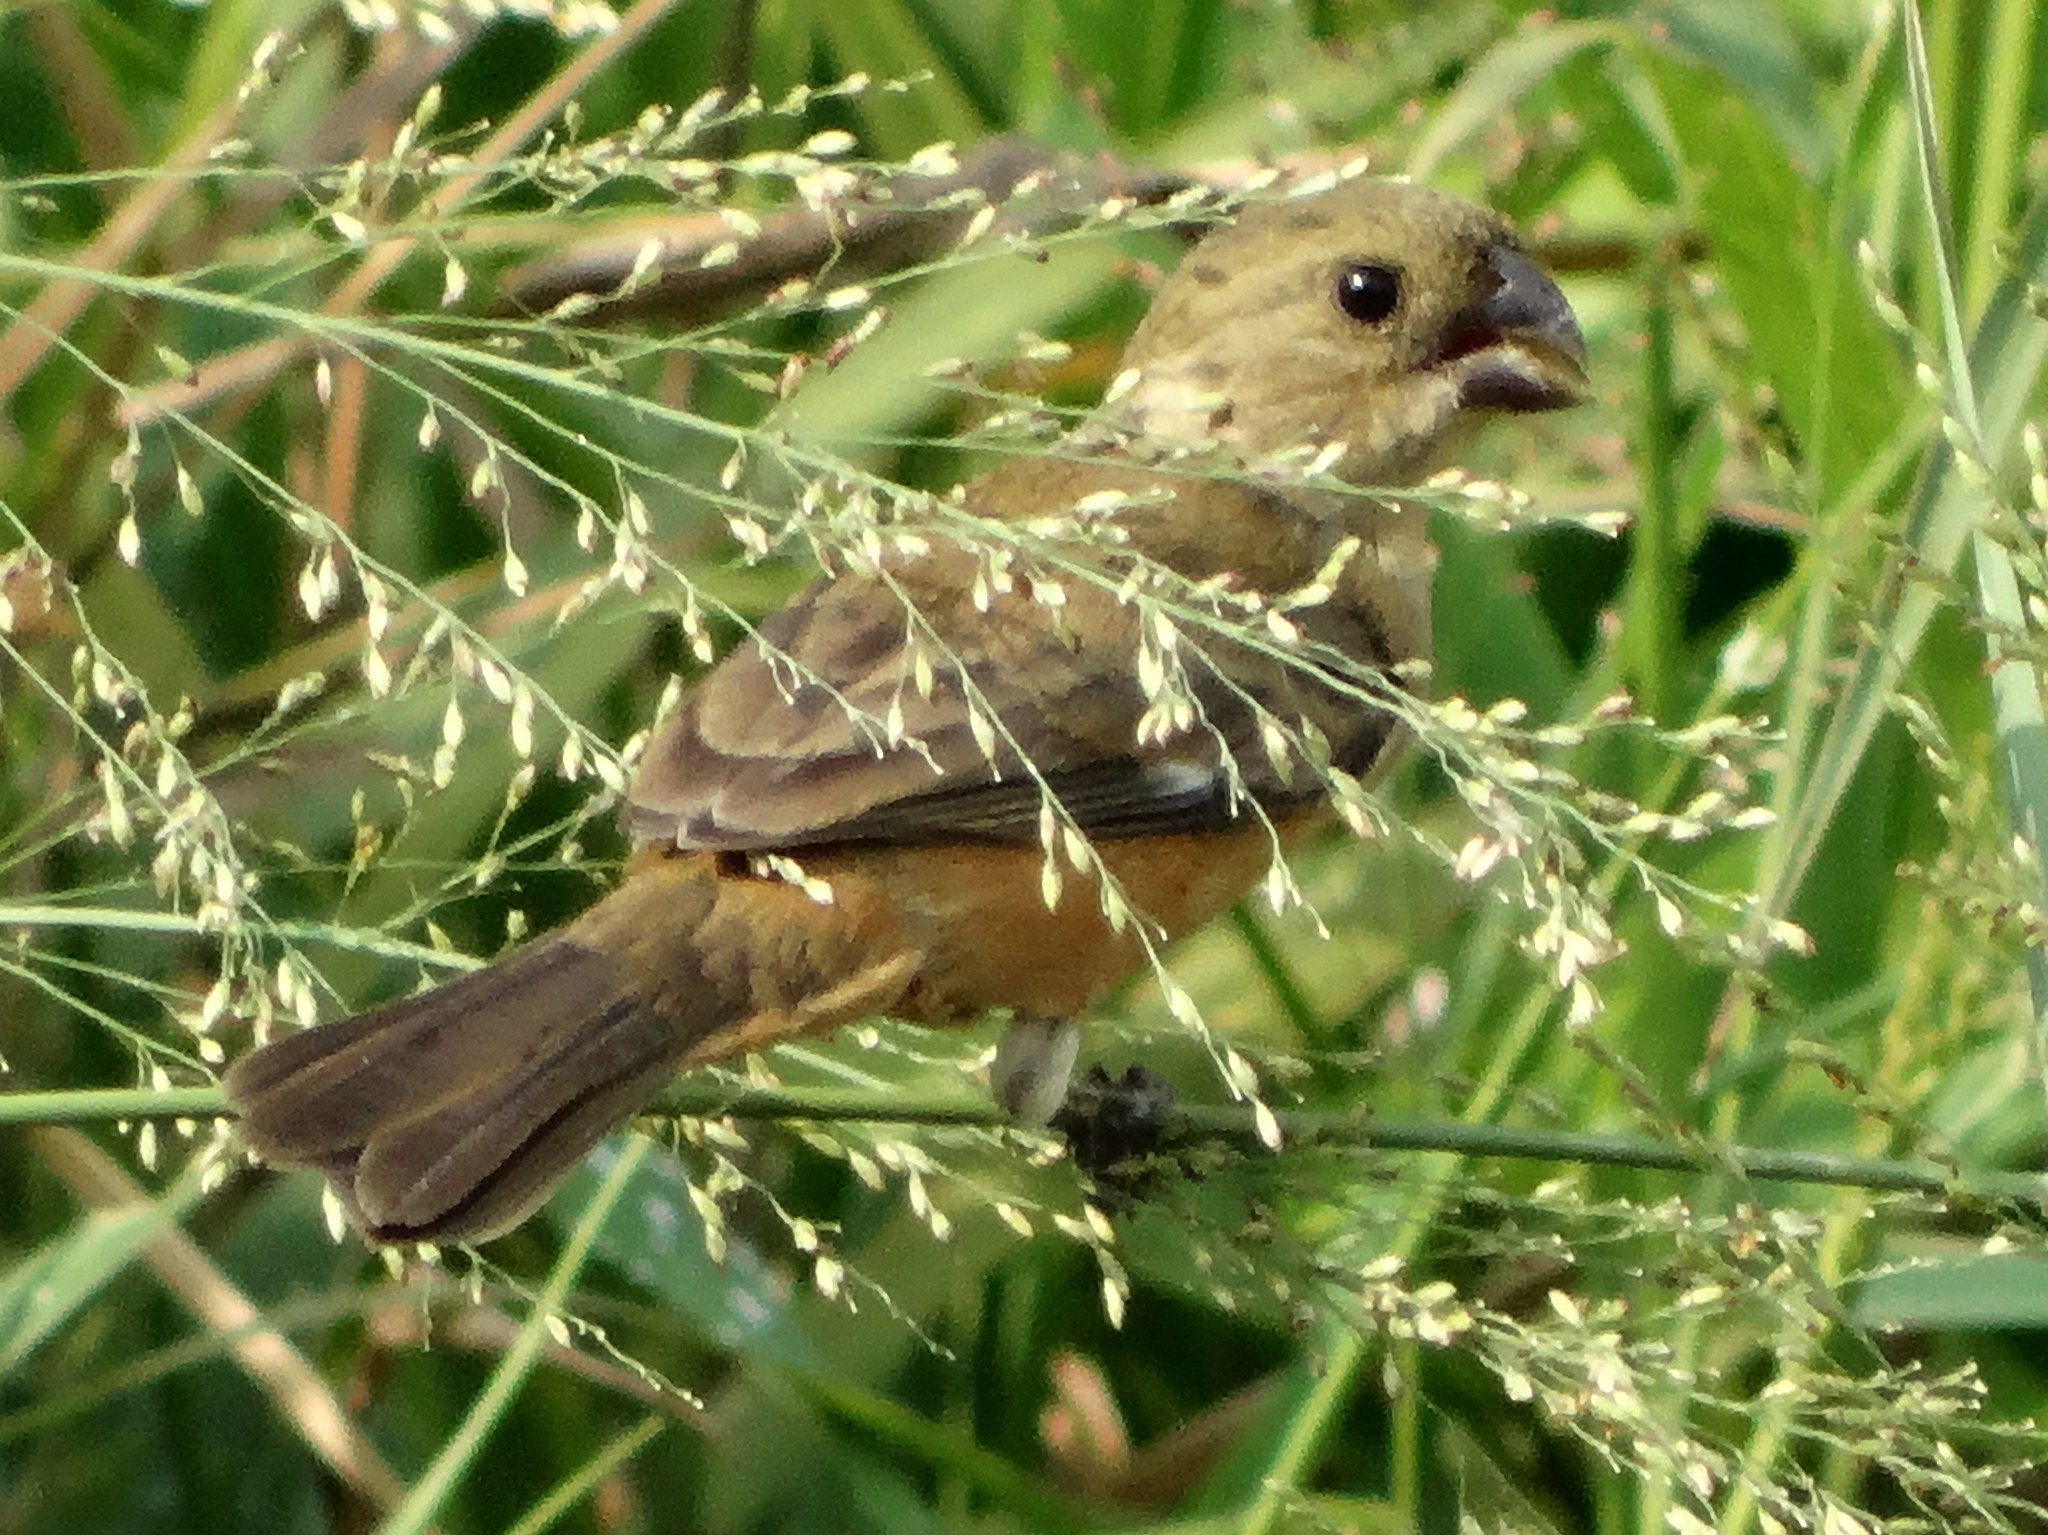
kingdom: Animalia
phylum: Chordata
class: Aves
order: Passeriformes
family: Thraupidae
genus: Sporophila
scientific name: Sporophila torqueola
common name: White-collared seedeater
